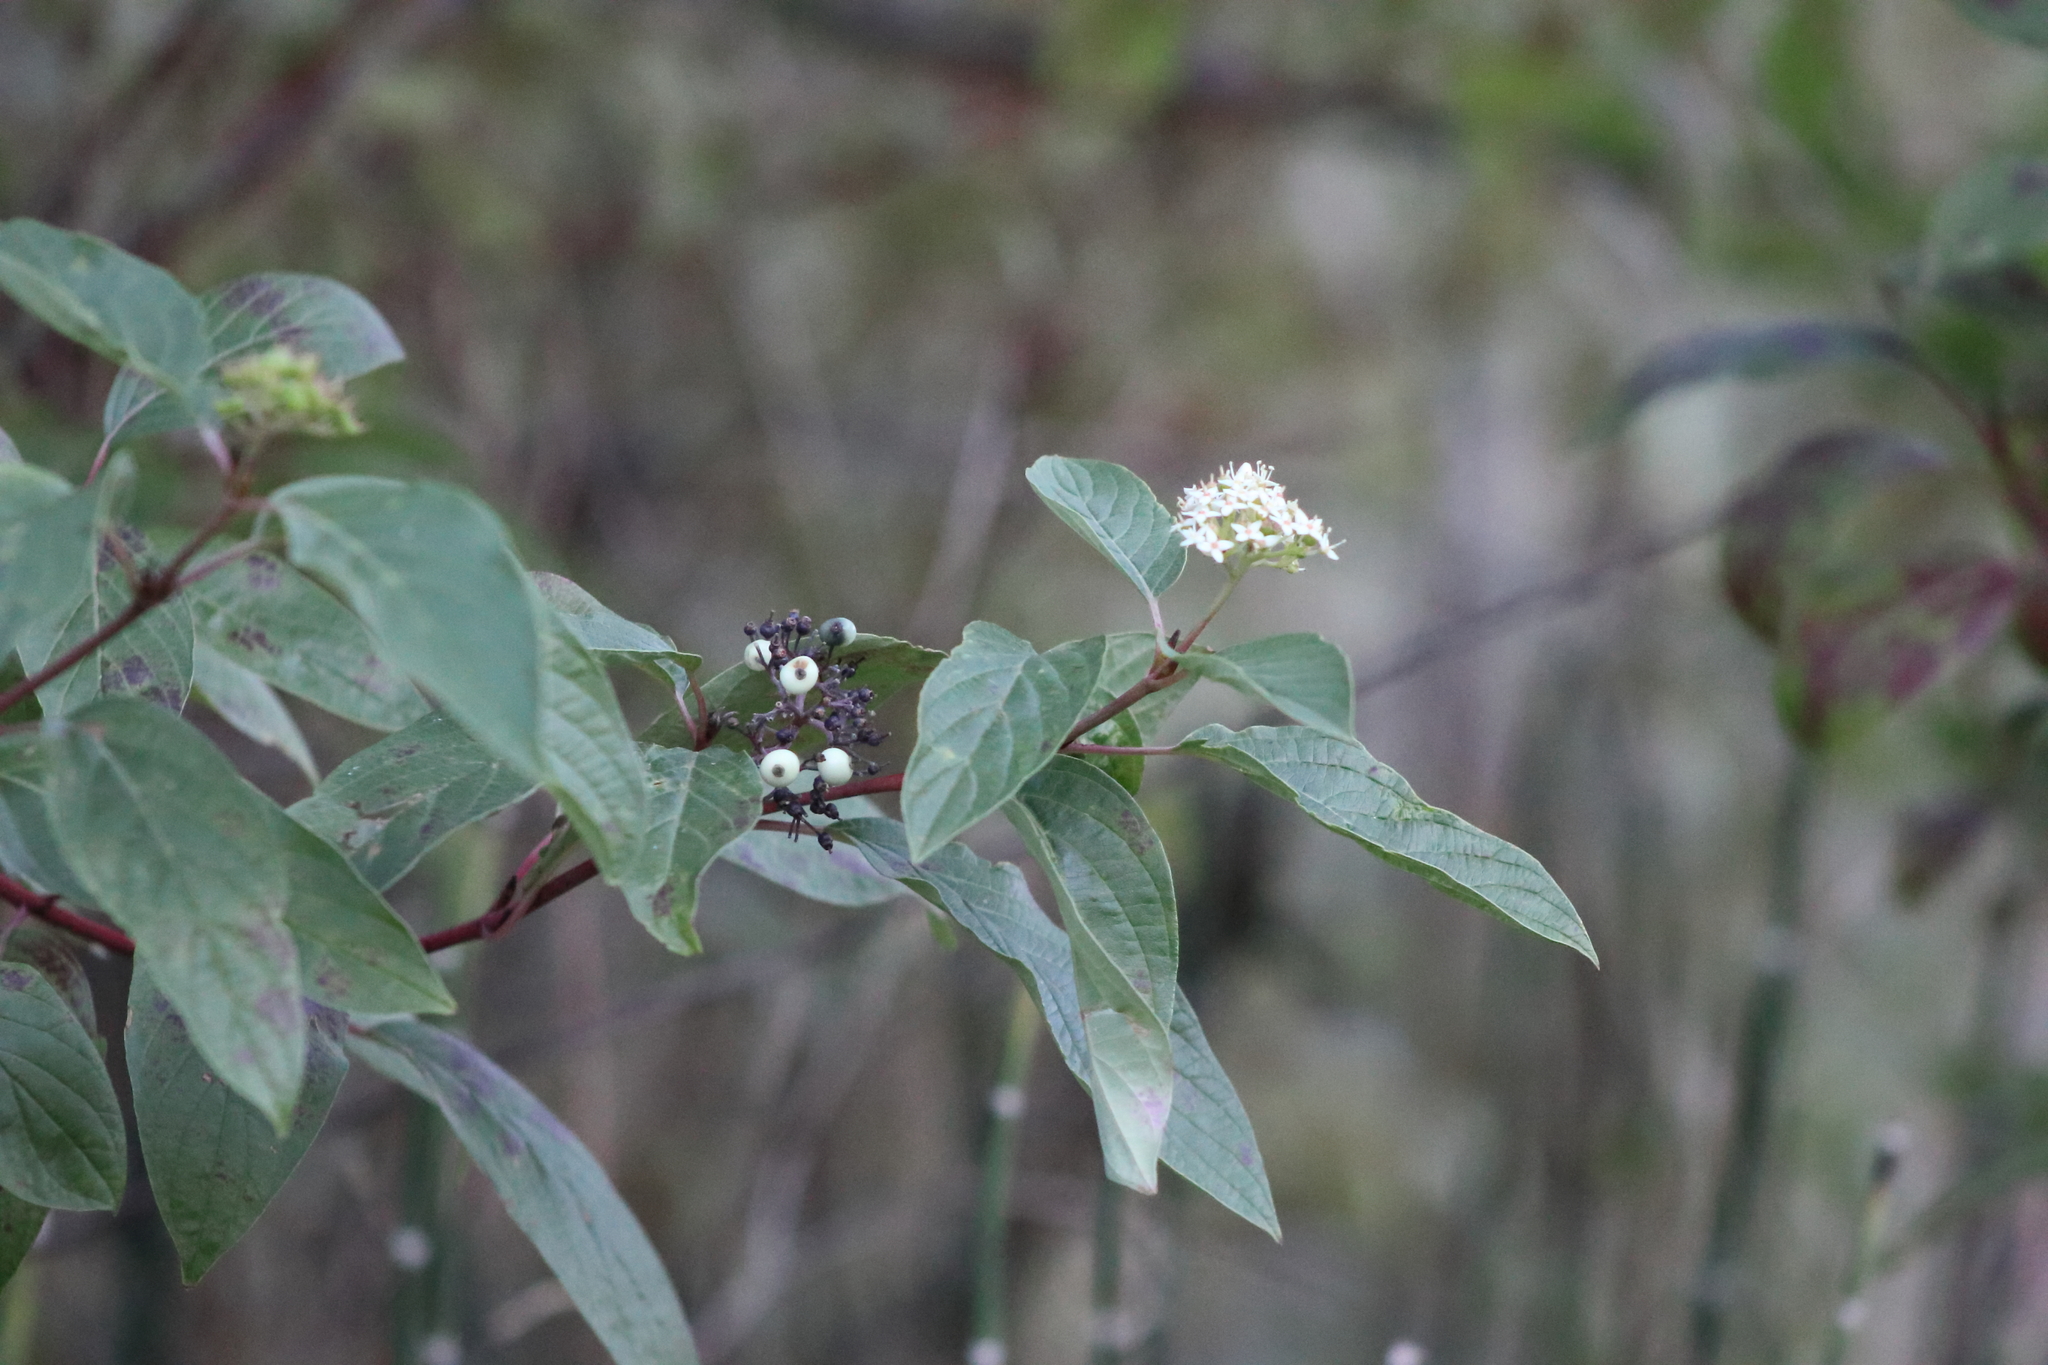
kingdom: Plantae
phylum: Tracheophyta
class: Magnoliopsida
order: Cornales
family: Cornaceae
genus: Cornus
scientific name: Cornus sericea
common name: Red-osier dogwood
